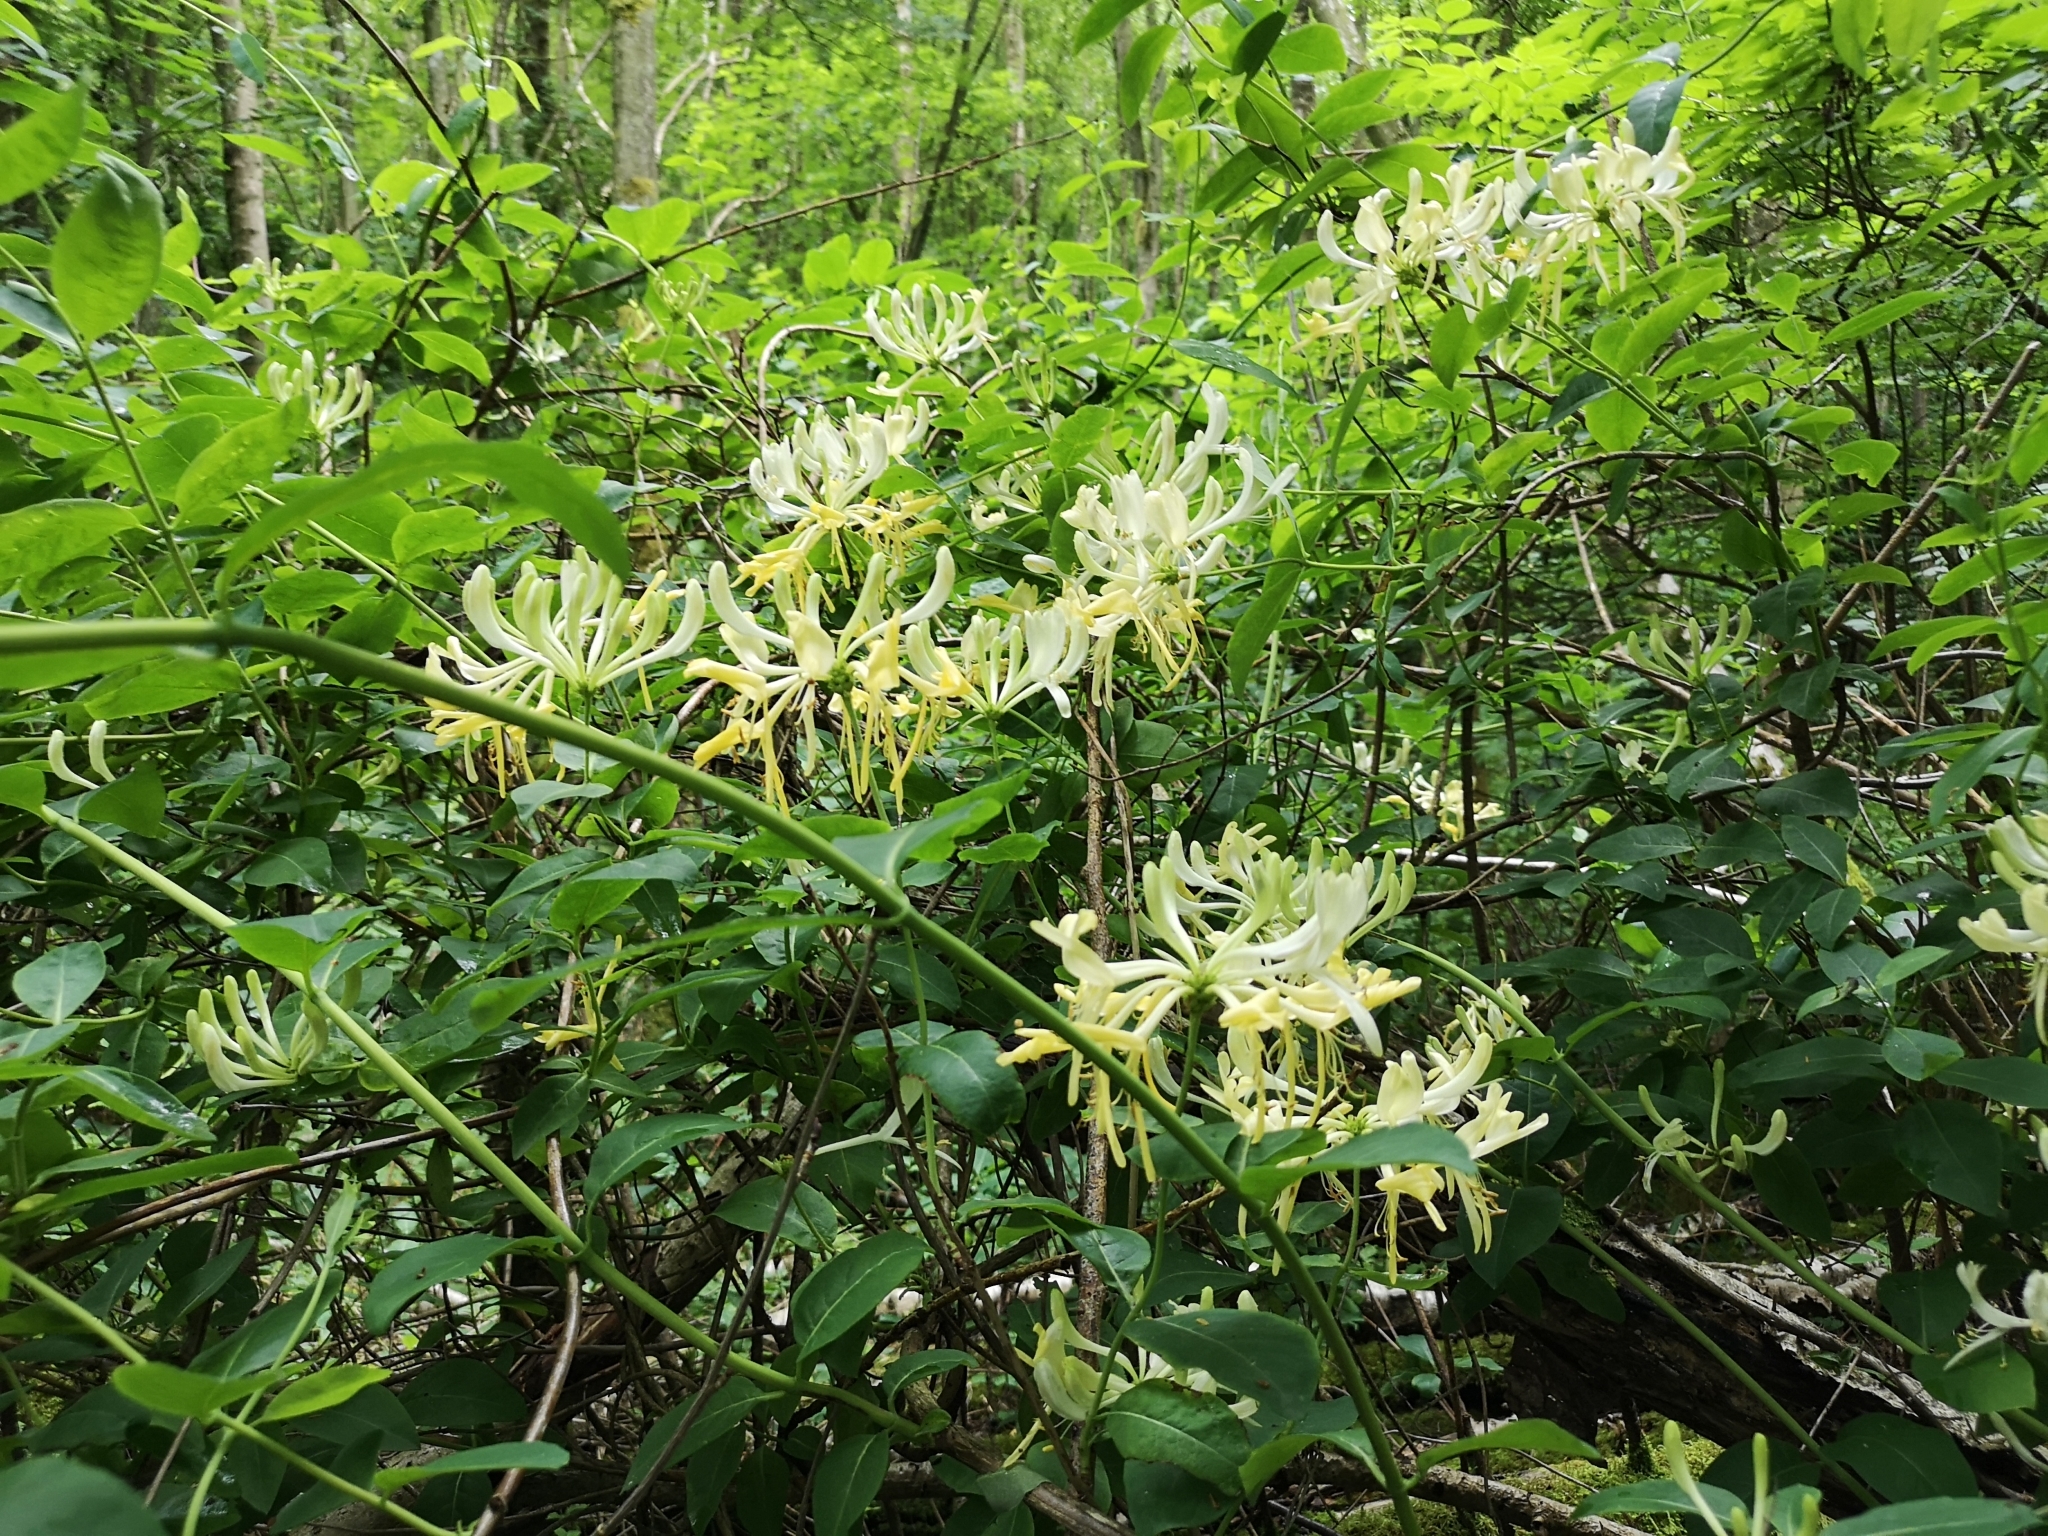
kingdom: Plantae
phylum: Tracheophyta
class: Magnoliopsida
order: Dipsacales
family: Caprifoliaceae
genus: Lonicera
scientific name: Lonicera periclymenum
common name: European honeysuckle
